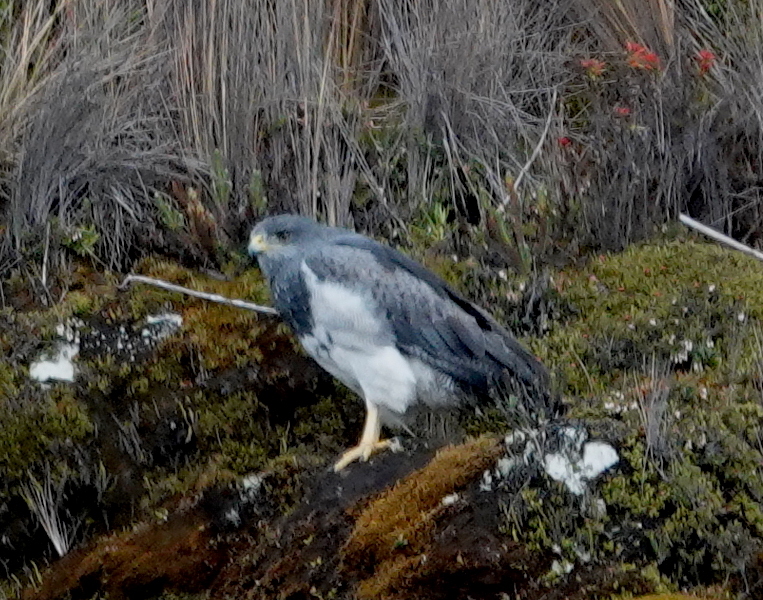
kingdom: Animalia
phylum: Chordata
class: Aves
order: Accipitriformes
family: Accipitridae
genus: Geranoaetus
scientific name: Geranoaetus melanoleucus
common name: Black-chested buzzard-eagle
